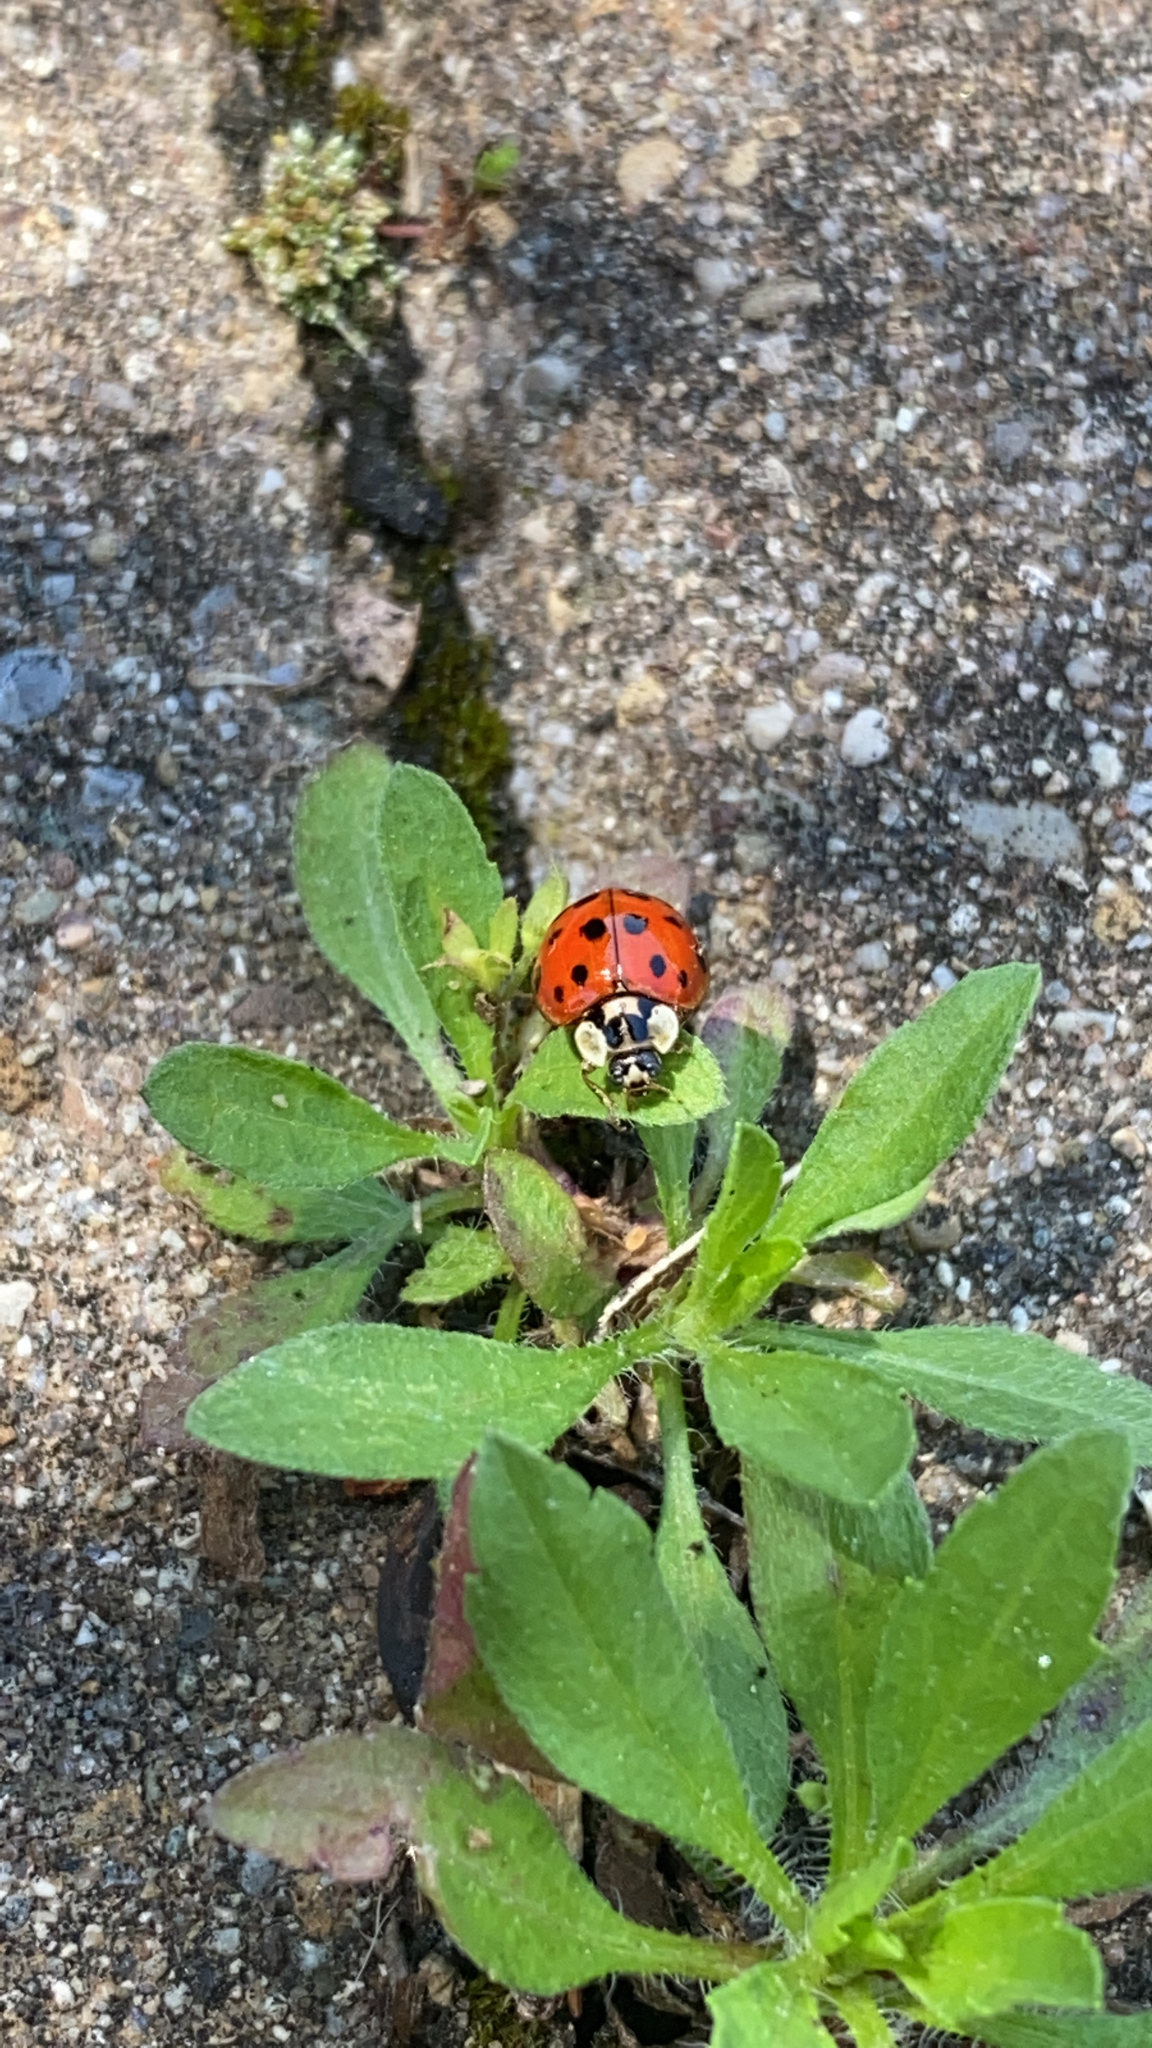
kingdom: Animalia
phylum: Arthropoda
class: Insecta
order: Coleoptera
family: Coccinellidae
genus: Harmonia
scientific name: Harmonia axyridis
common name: Harlequin ladybird
